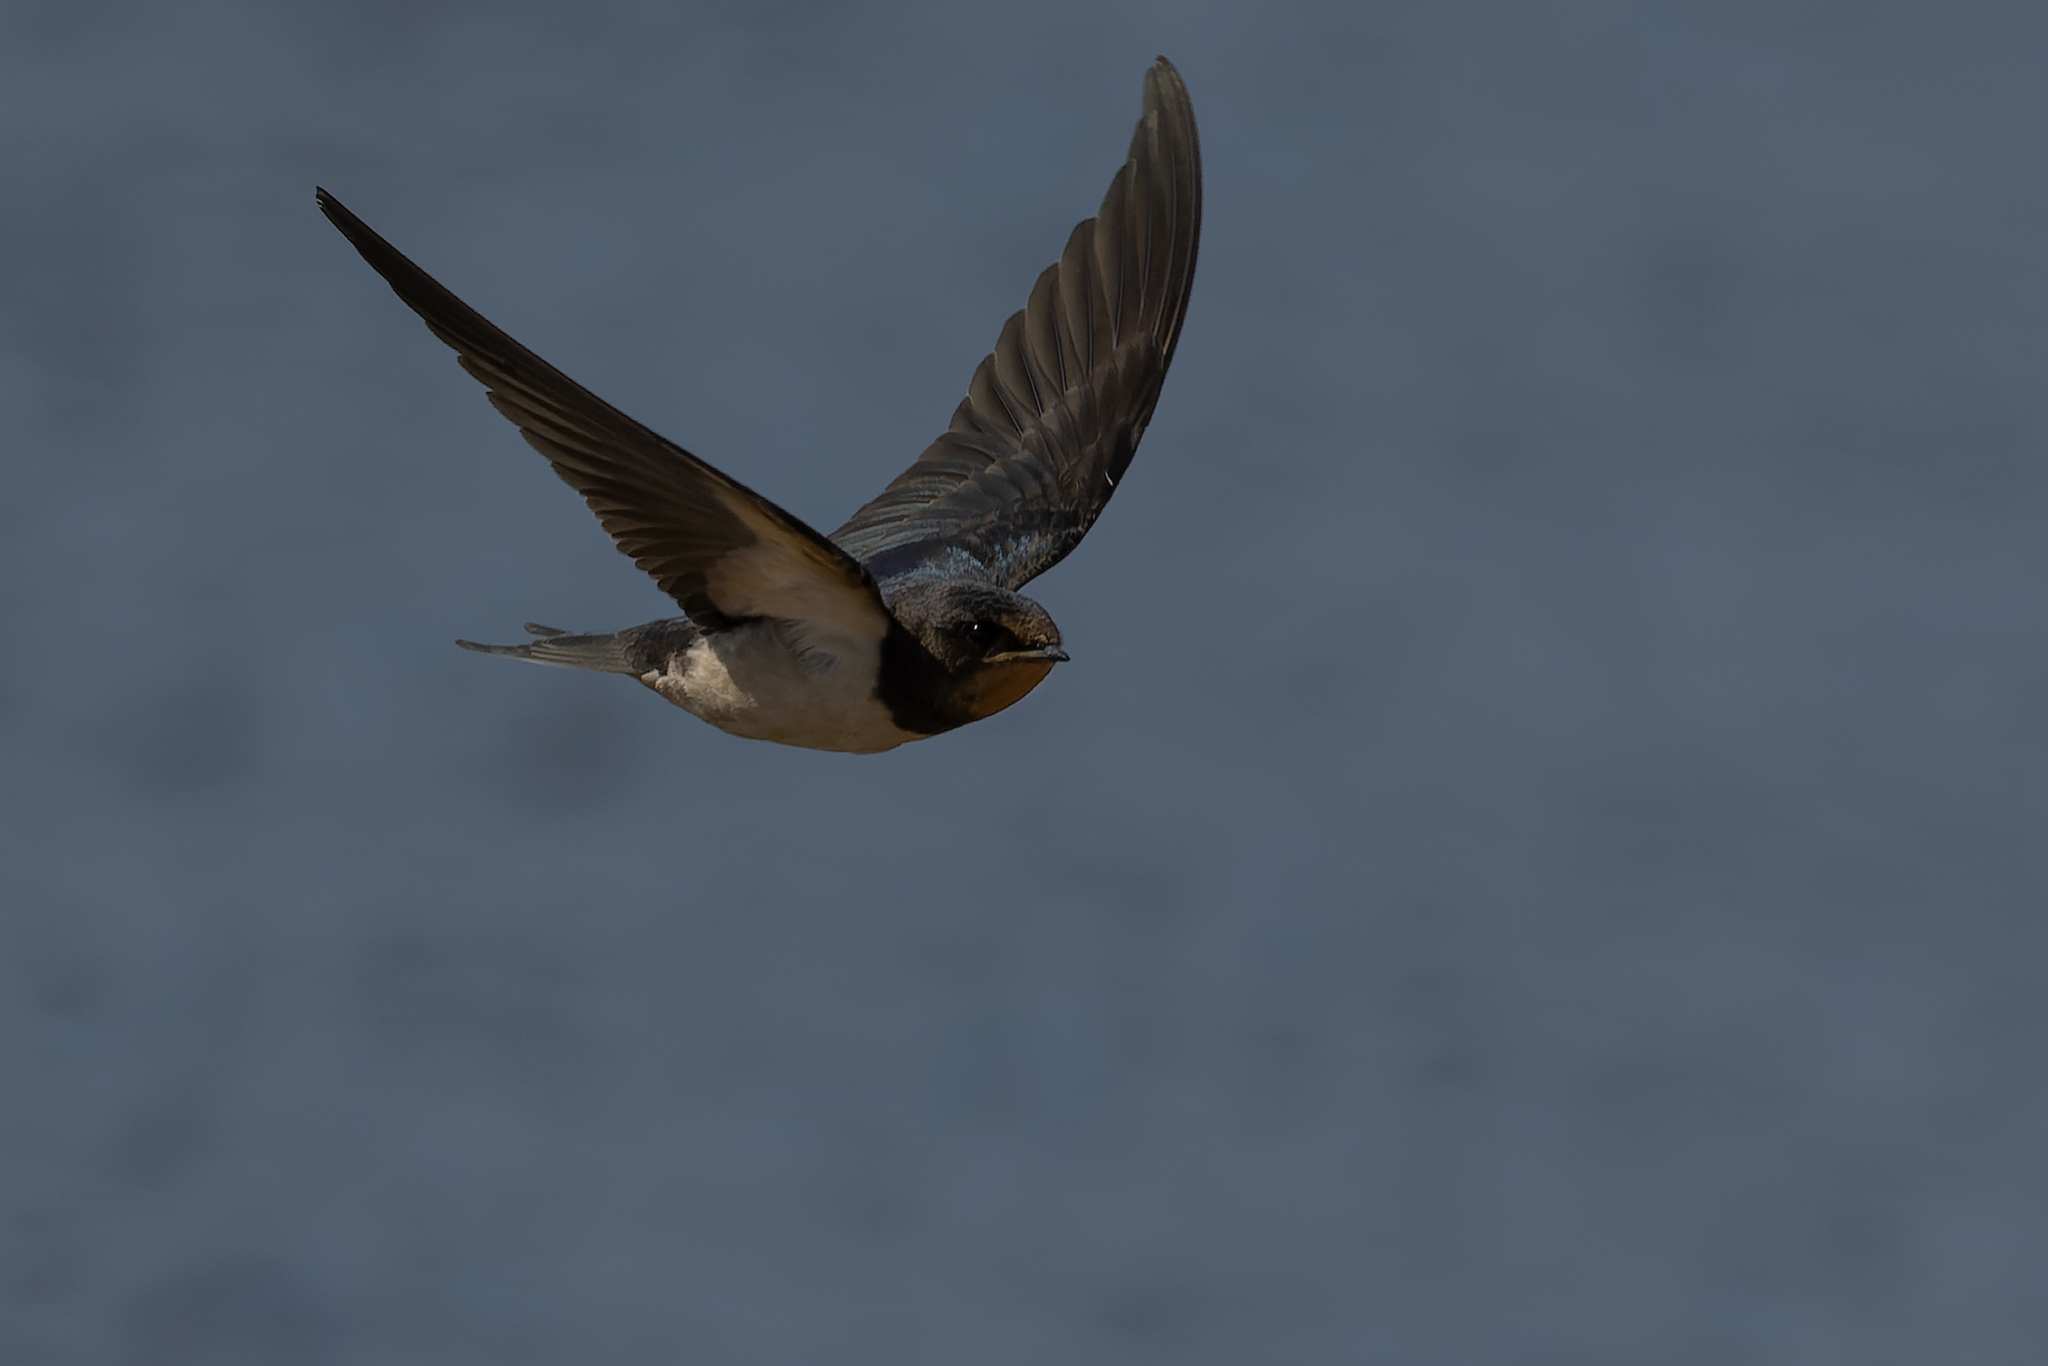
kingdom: Animalia
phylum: Chordata
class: Aves
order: Passeriformes
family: Hirundinidae
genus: Hirundo
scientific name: Hirundo rustica
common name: Barn swallow
